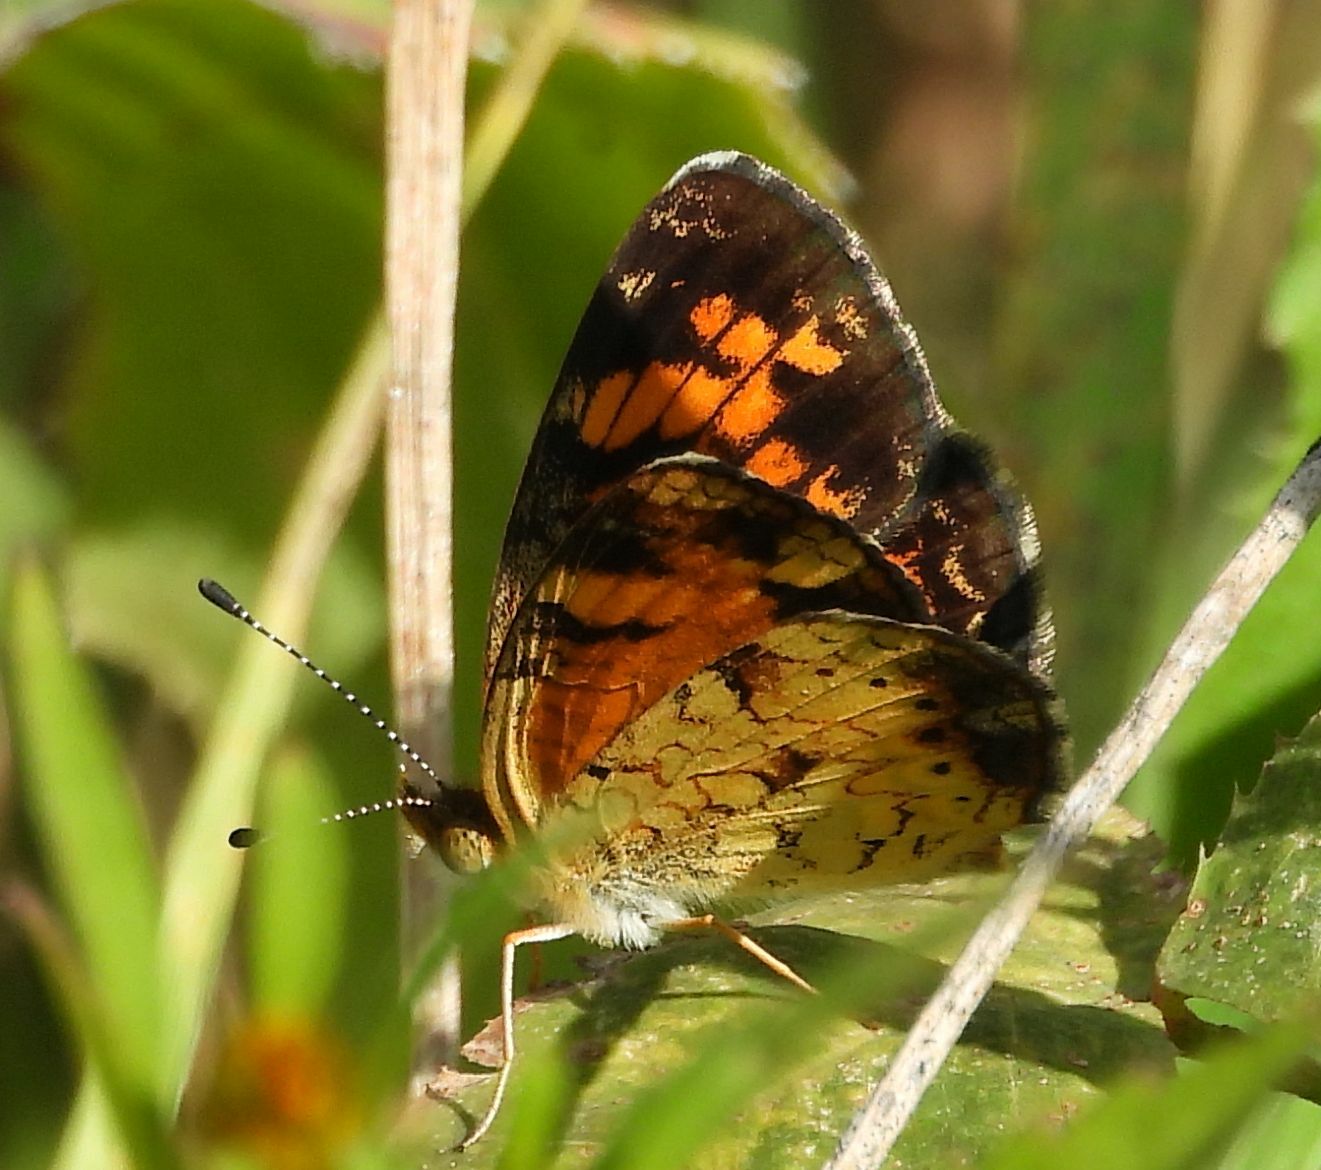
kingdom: Animalia
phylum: Arthropoda
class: Insecta
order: Lepidoptera
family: Nymphalidae
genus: Phyciodes
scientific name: Phyciodes tharos
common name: Pearl crescent
